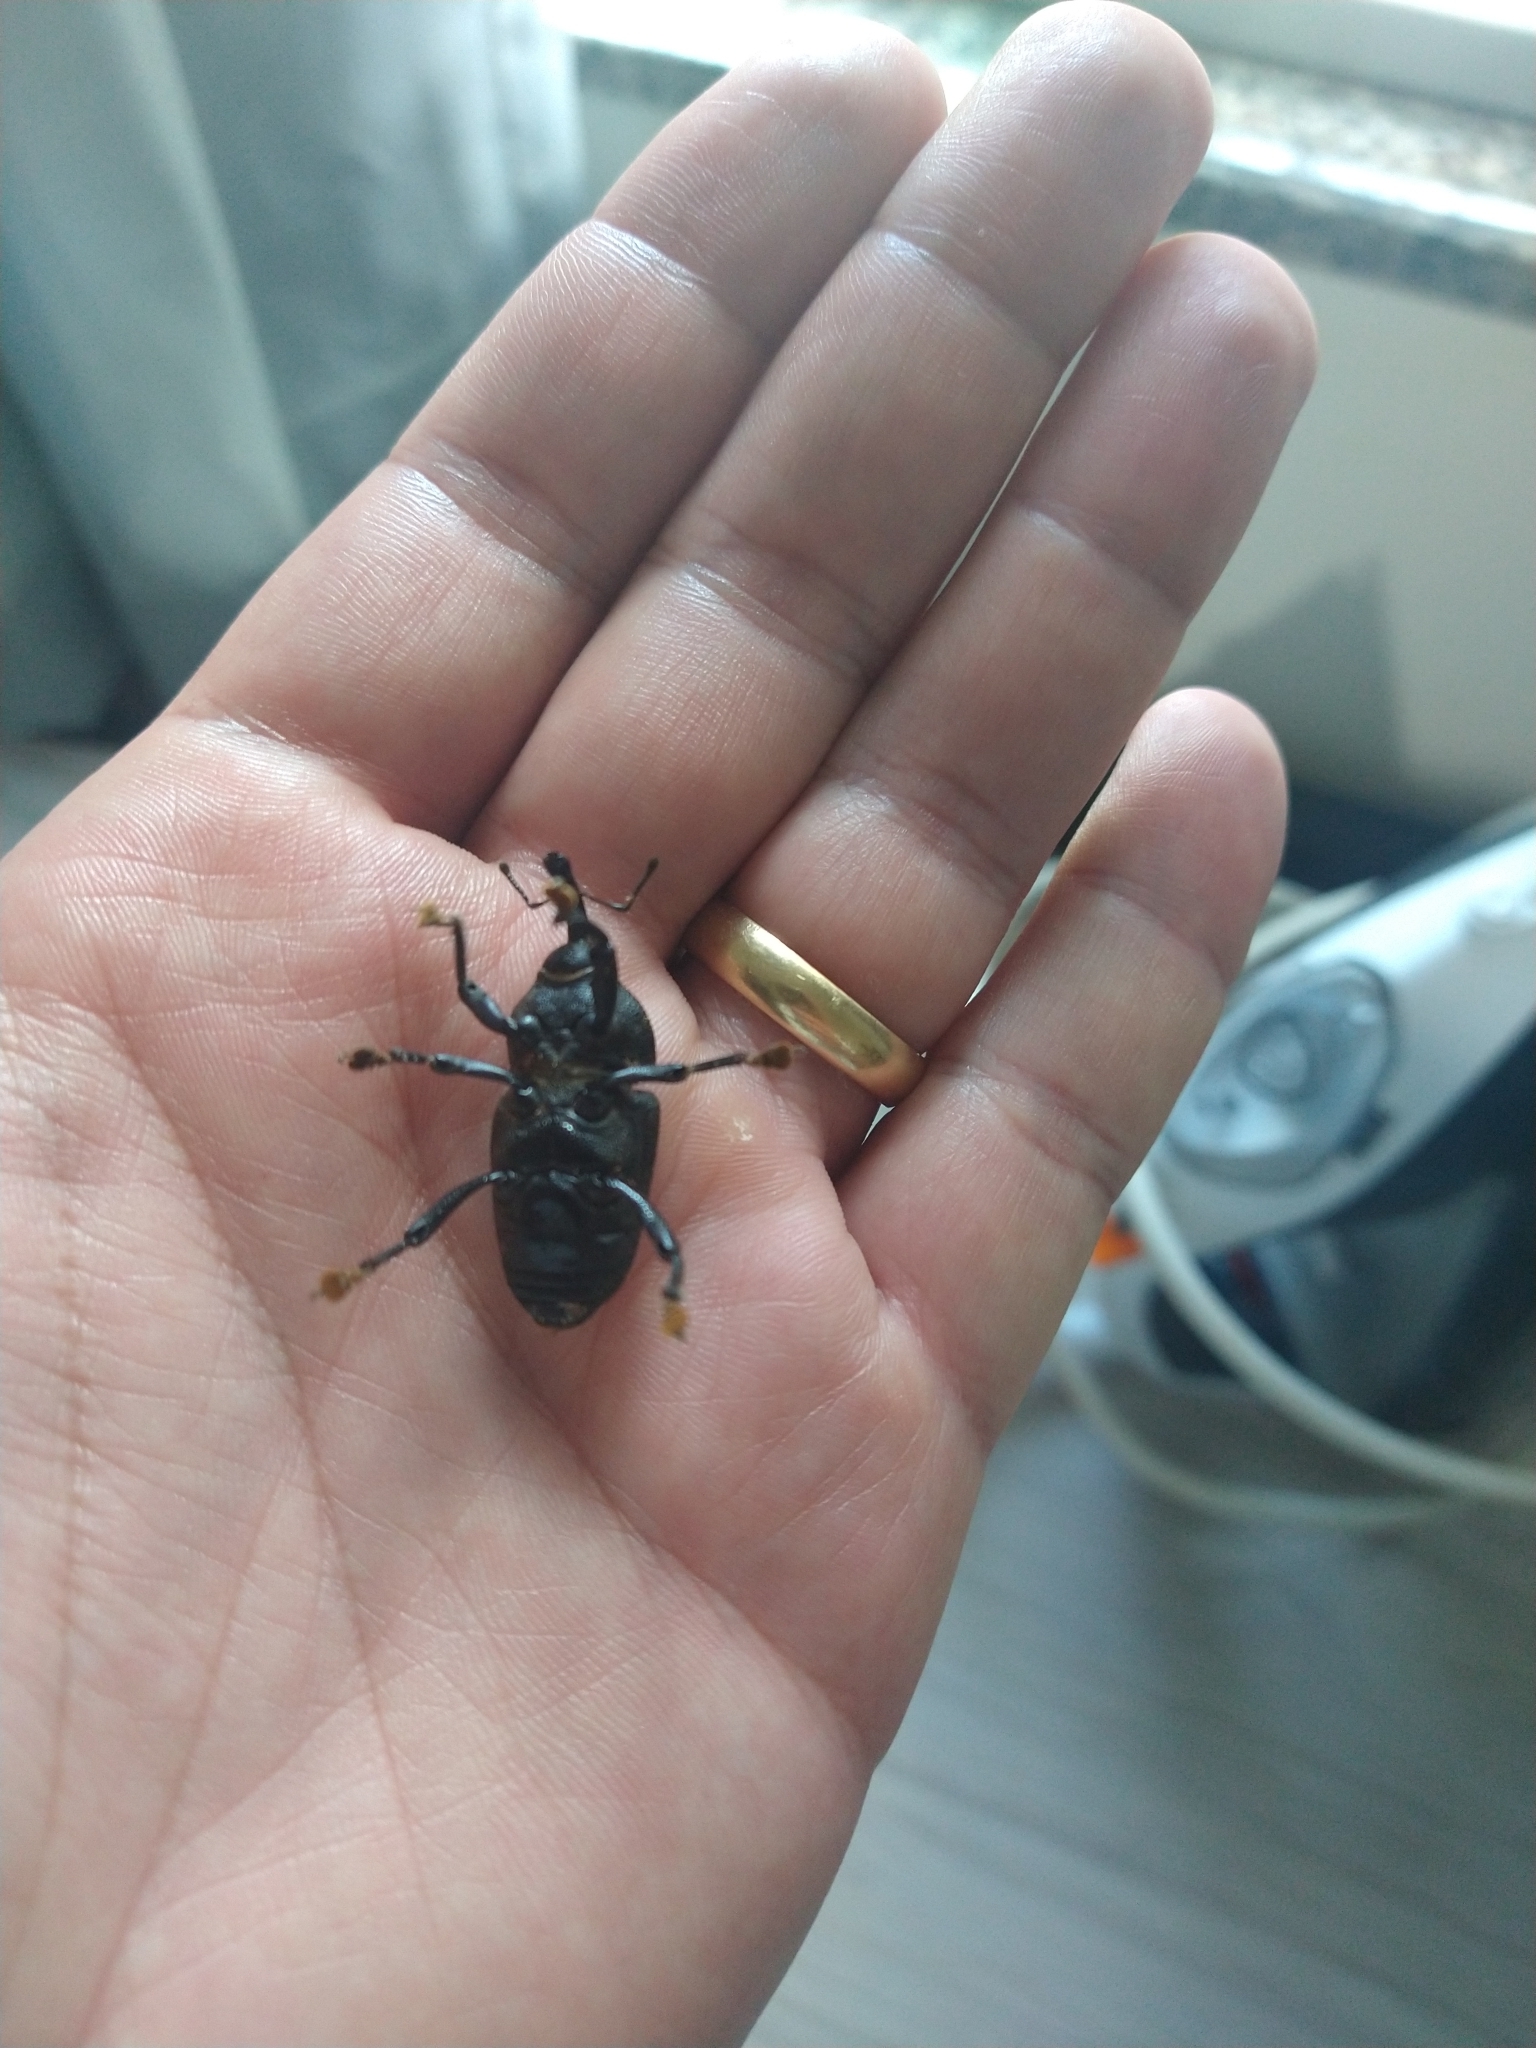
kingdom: Animalia
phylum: Arthropoda
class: Insecta
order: Coleoptera
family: Curculionidae
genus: Homalinotus
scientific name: Homalinotus coriaceus
